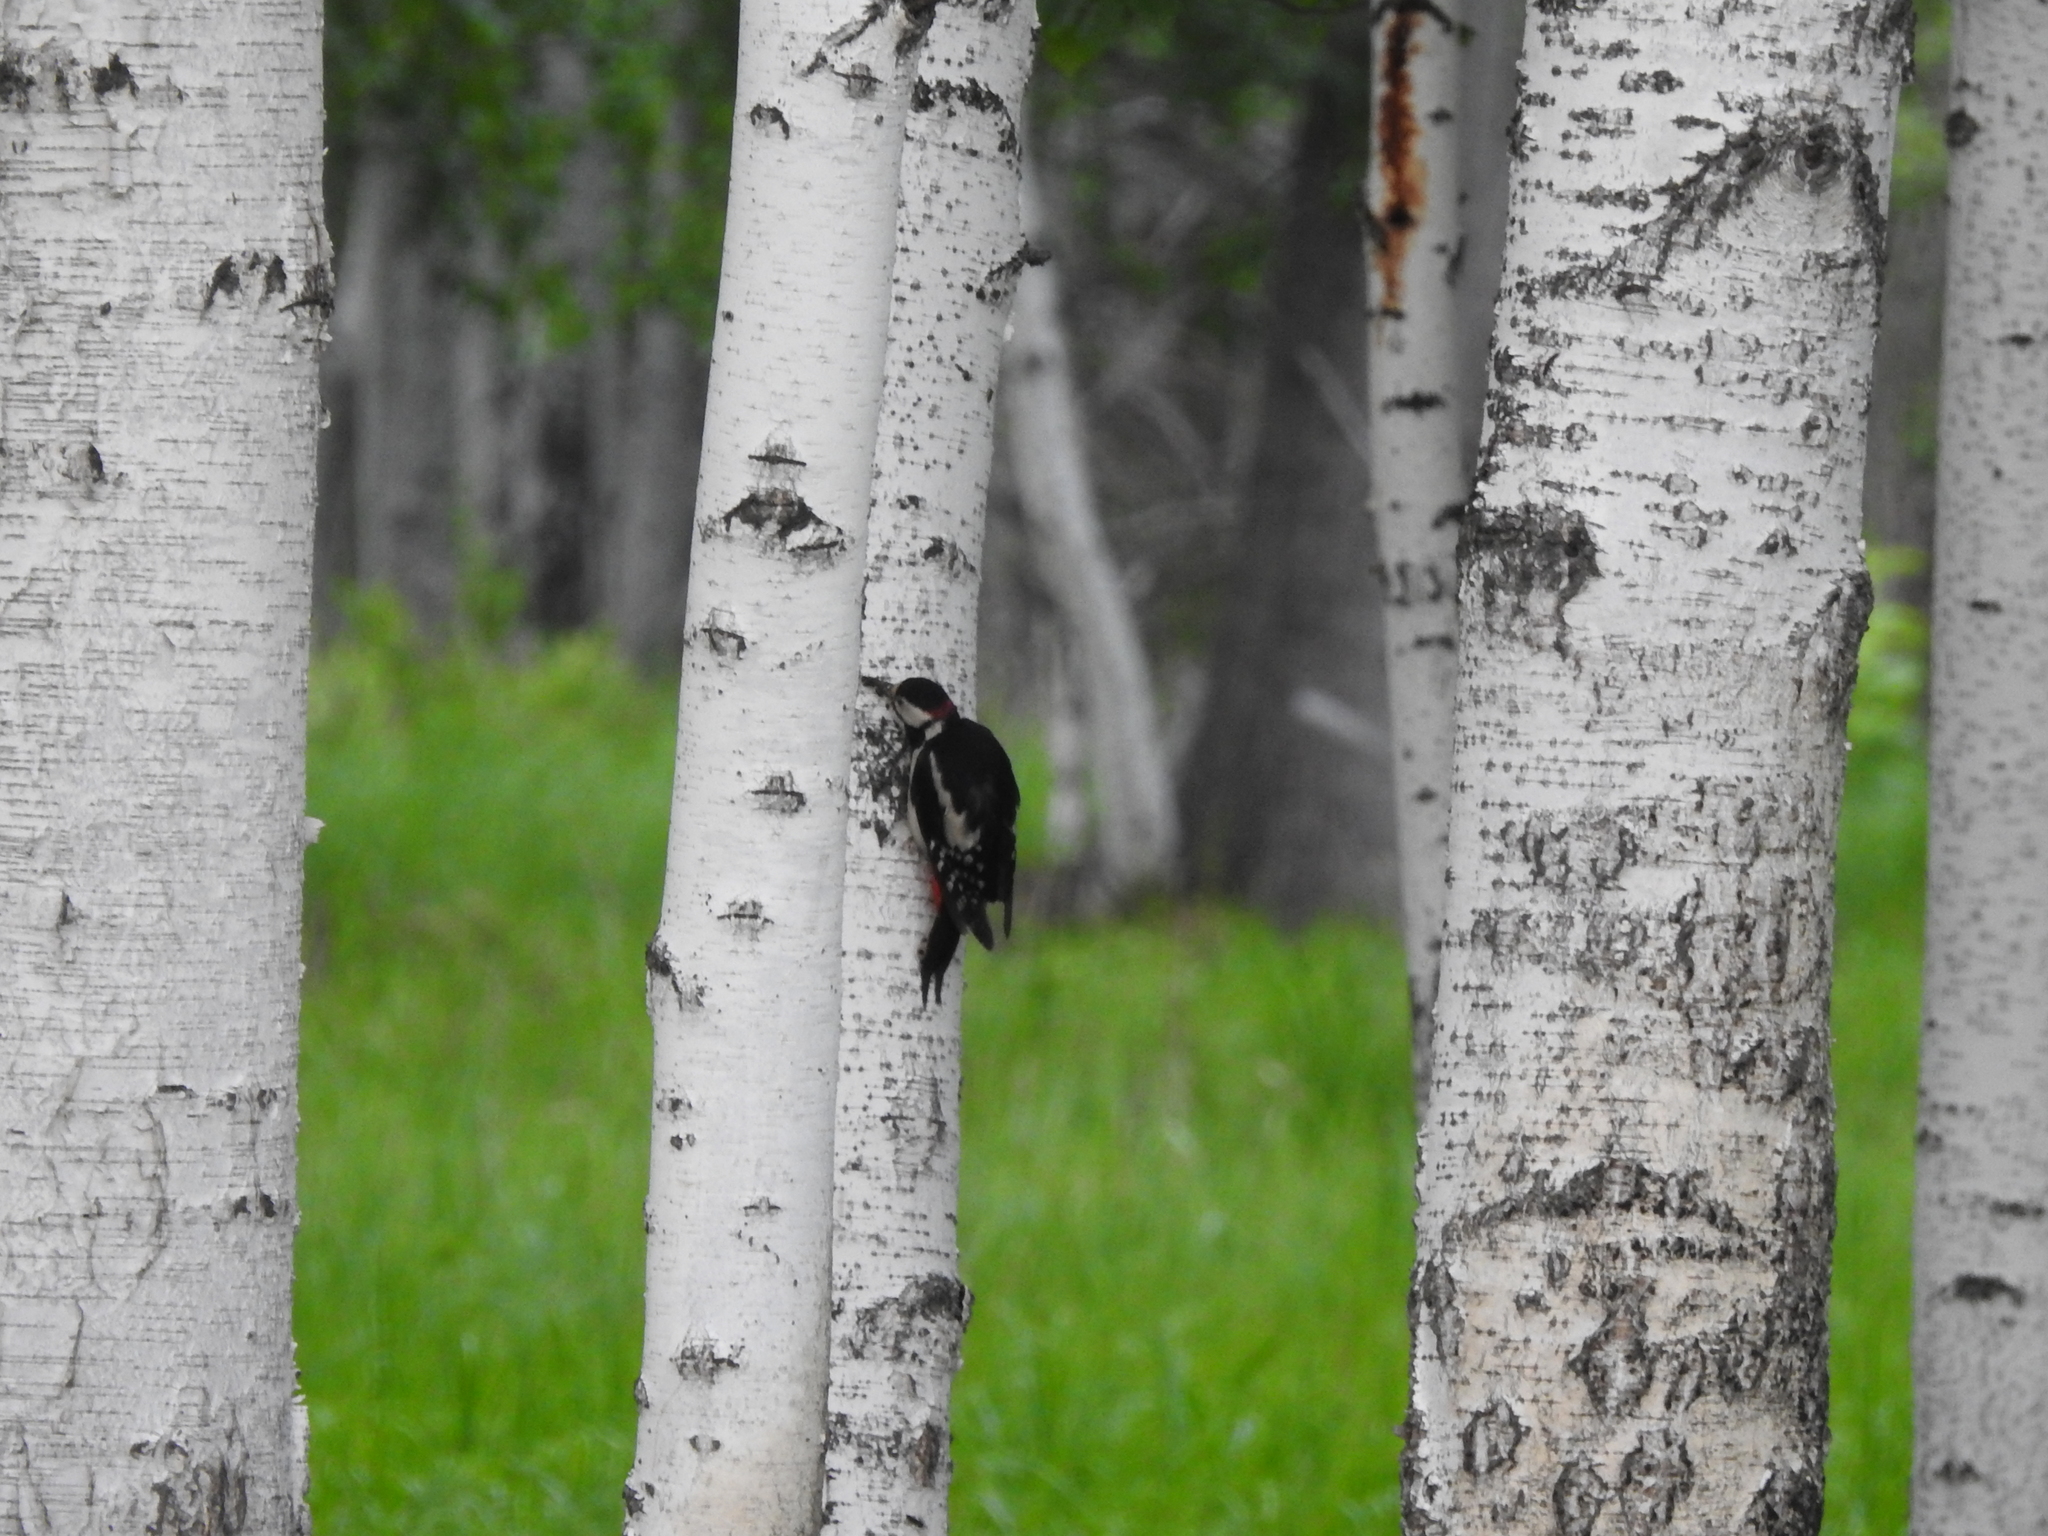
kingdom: Animalia
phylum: Chordata
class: Aves
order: Piciformes
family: Picidae
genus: Dendrocopos
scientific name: Dendrocopos major
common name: Great spotted woodpecker
